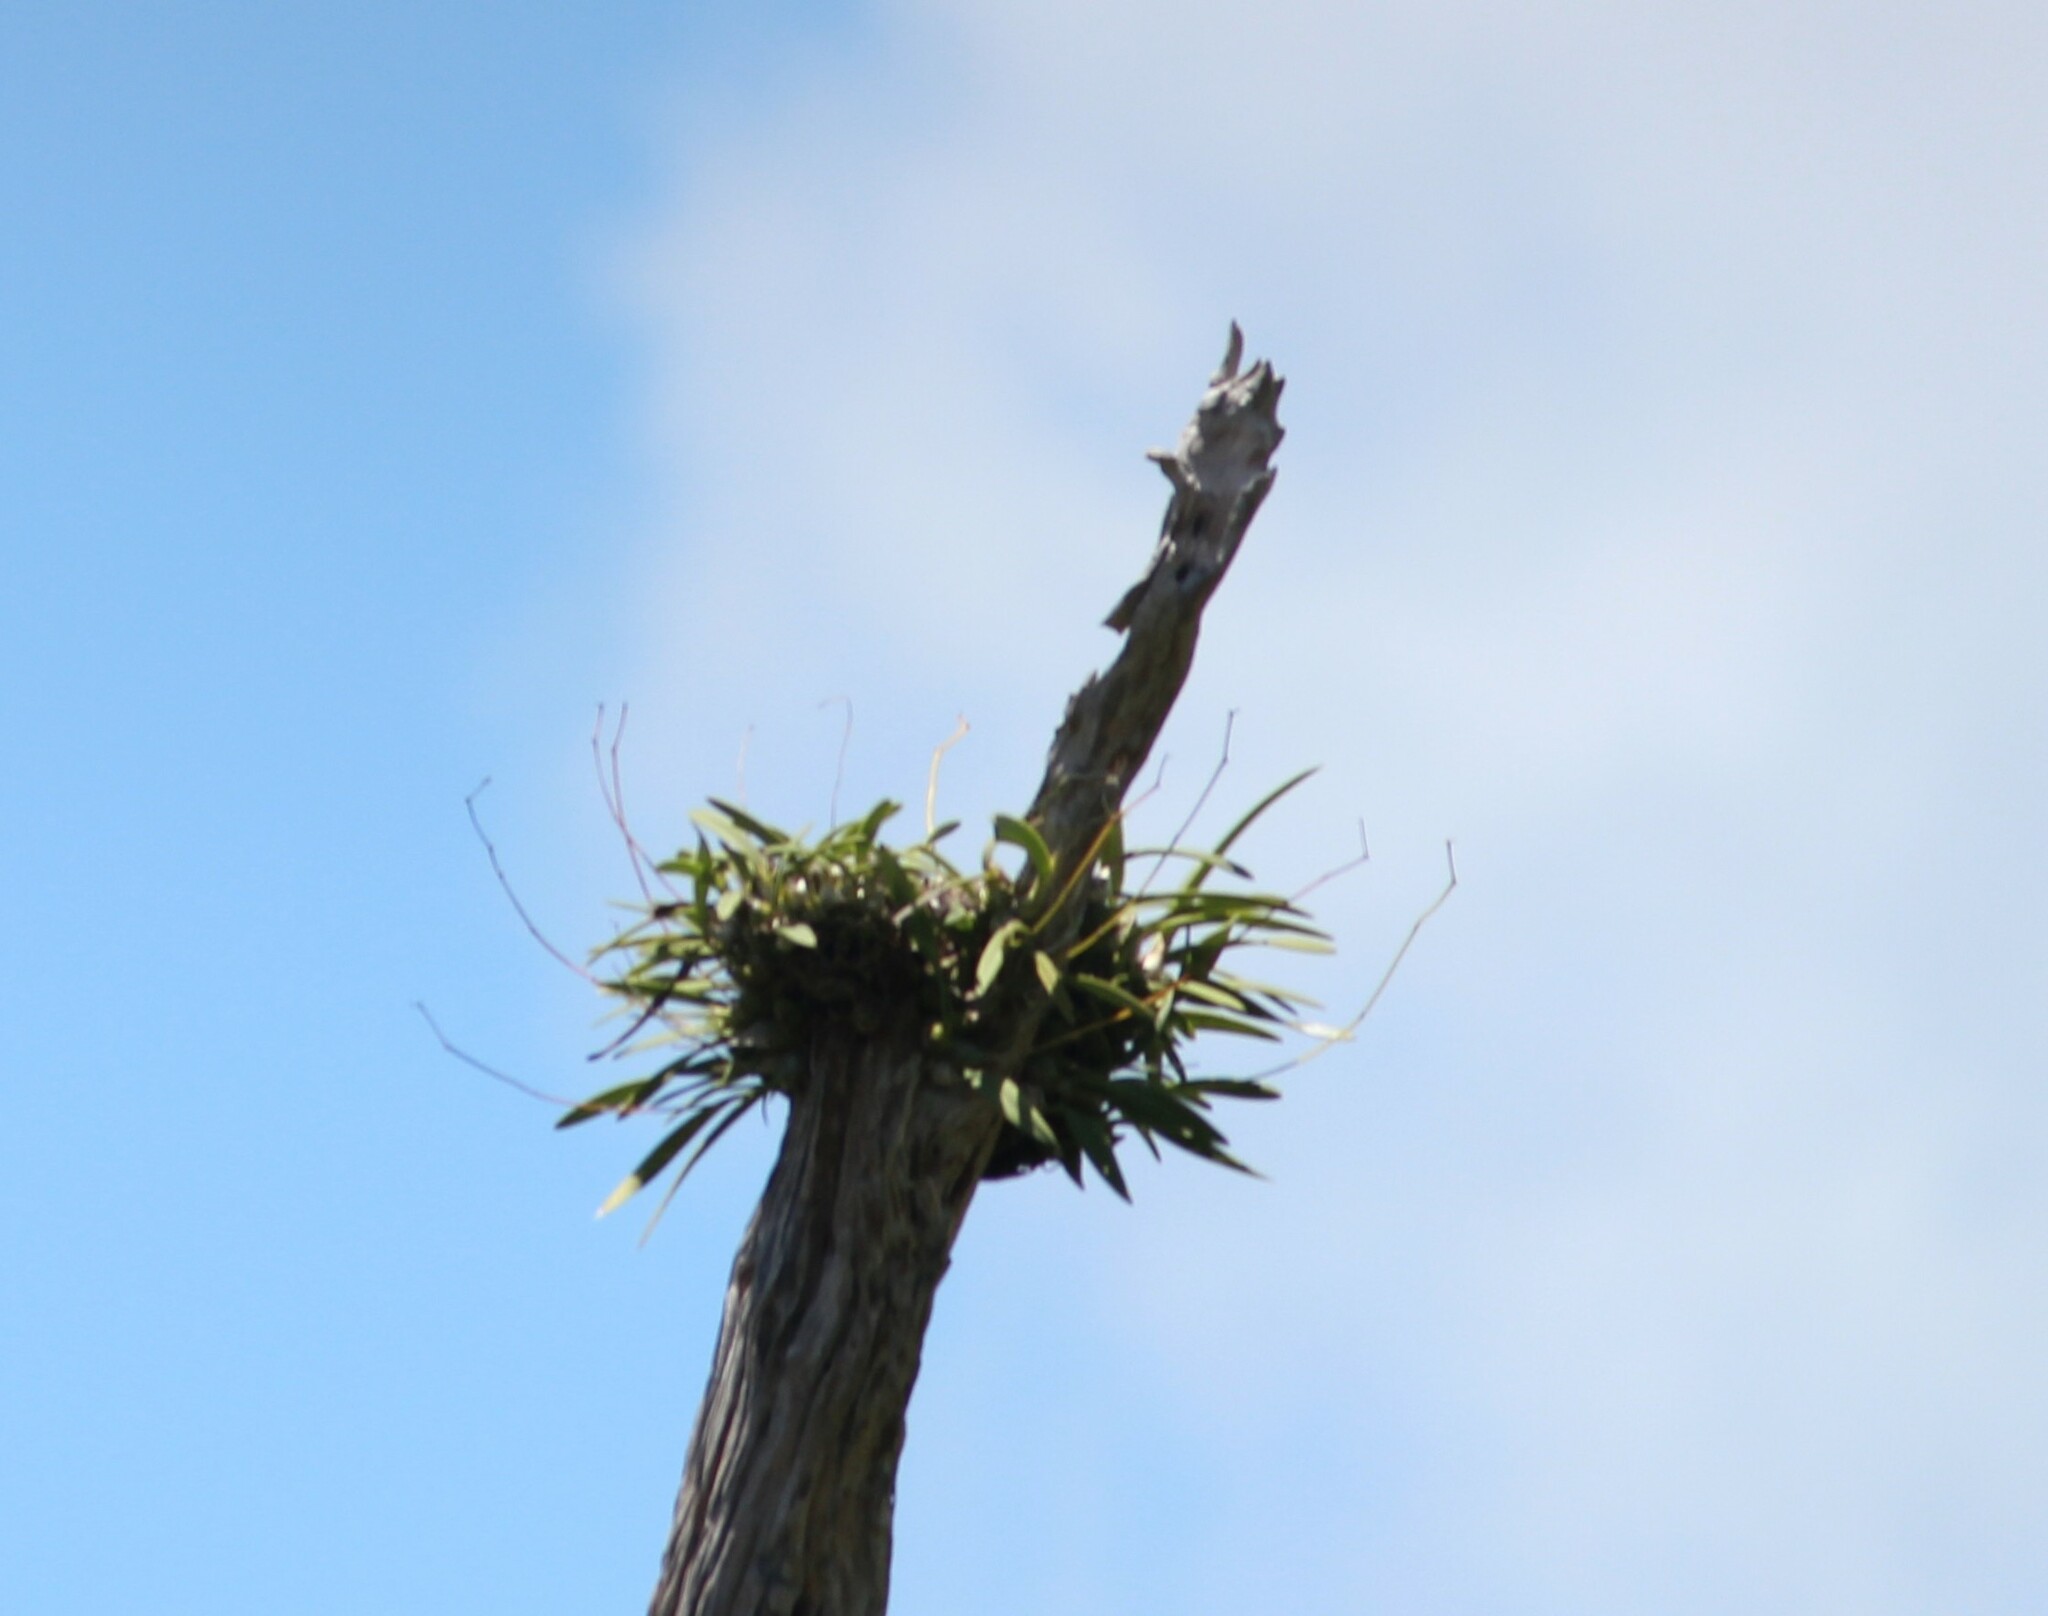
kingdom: Plantae
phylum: Tracheophyta
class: Liliopsida
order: Asparagales
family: Orchidaceae
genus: Encyclia
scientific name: Encyclia tampensis
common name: Florida butterfly orchid
